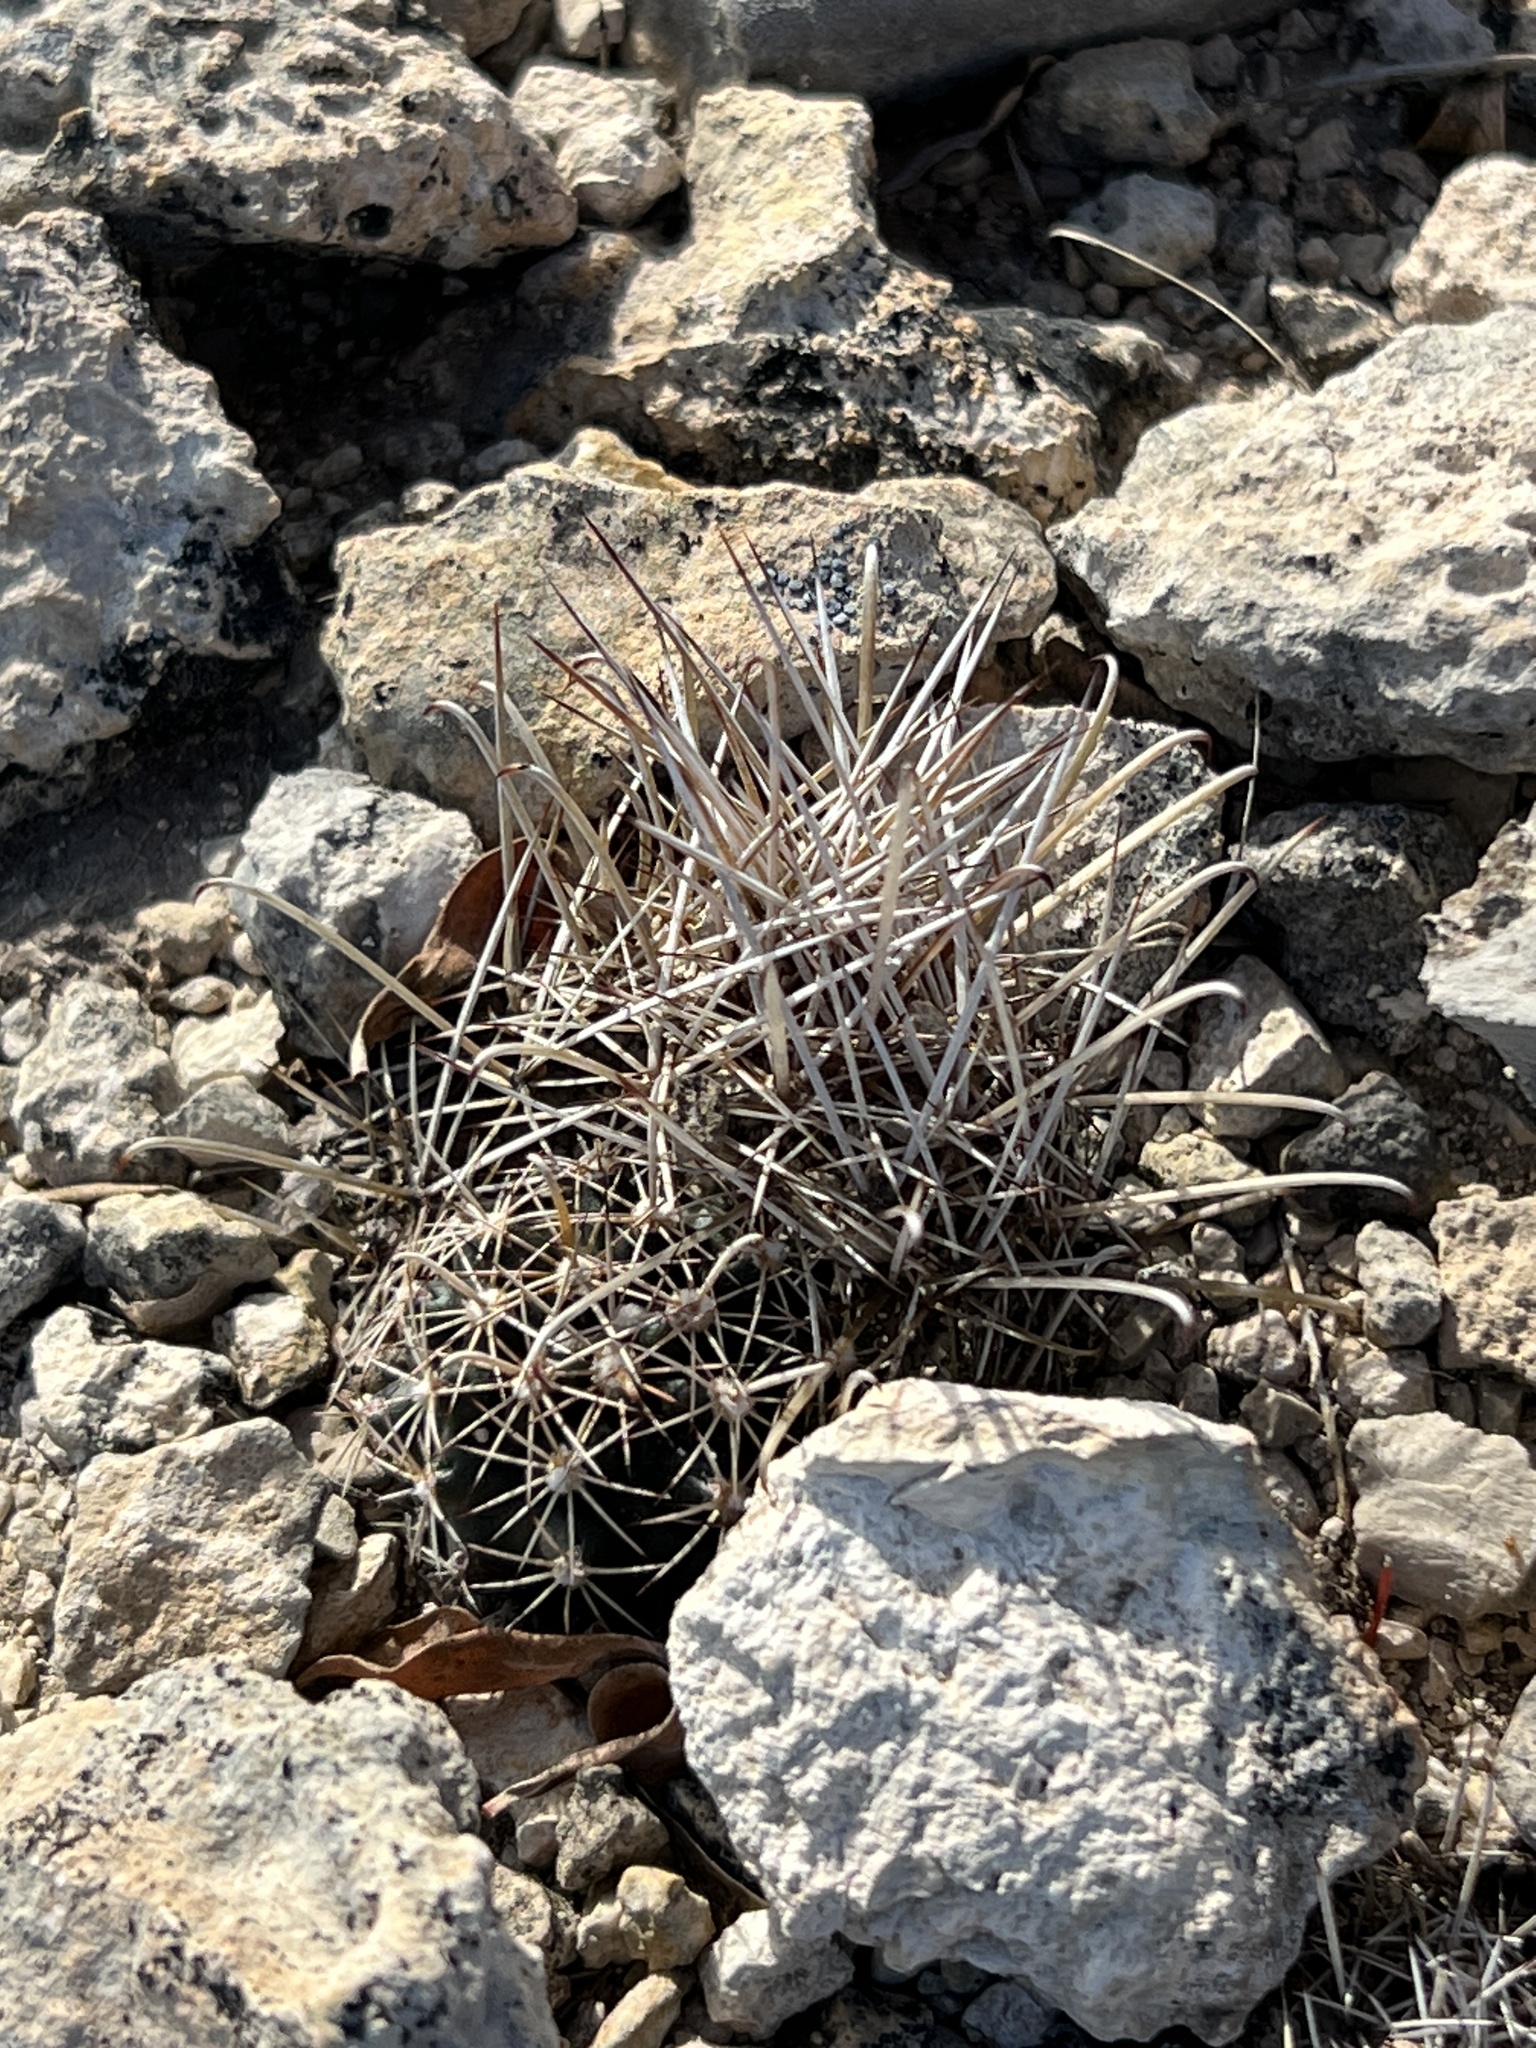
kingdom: Plantae
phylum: Tracheophyta
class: Magnoliopsida
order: Caryophyllales
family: Cactaceae
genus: Sclerocactus
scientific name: Sclerocactus brevihamatus
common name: Engelmann's fishhook cactus
